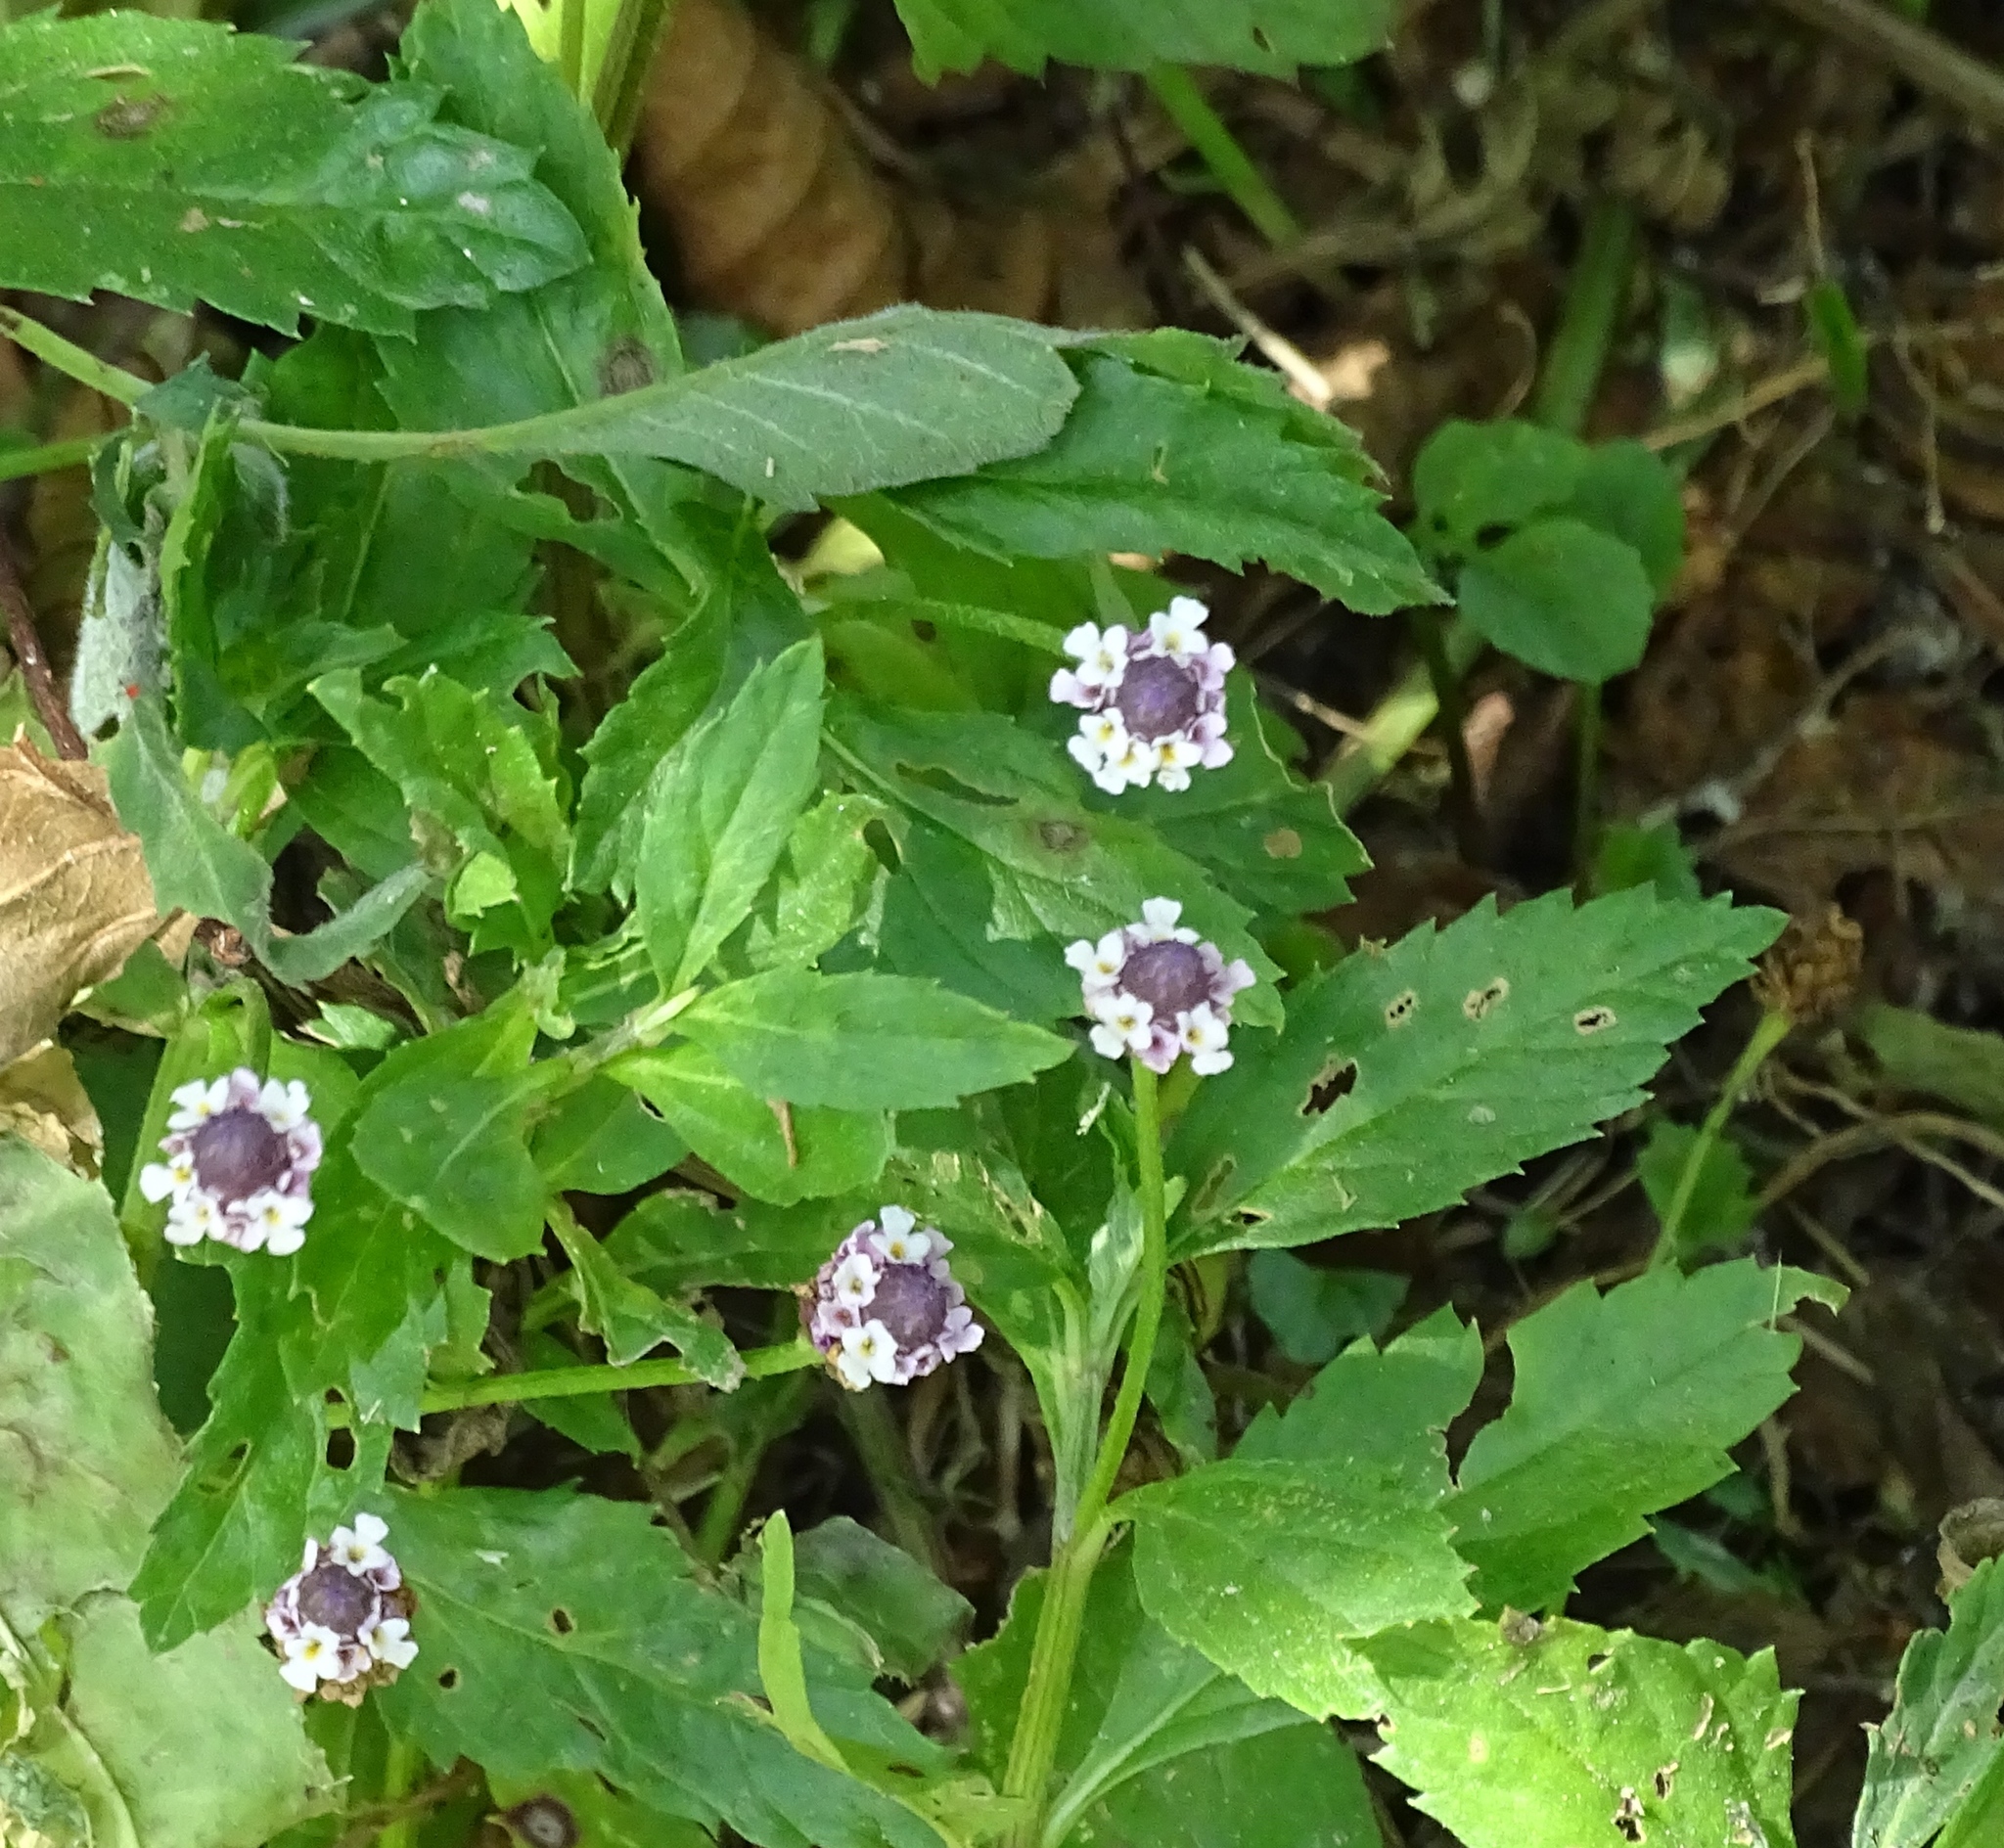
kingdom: Plantae
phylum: Tracheophyta
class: Magnoliopsida
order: Lamiales
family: Verbenaceae
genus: Phyla
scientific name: Phyla lanceolata
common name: Northern fogfruit
